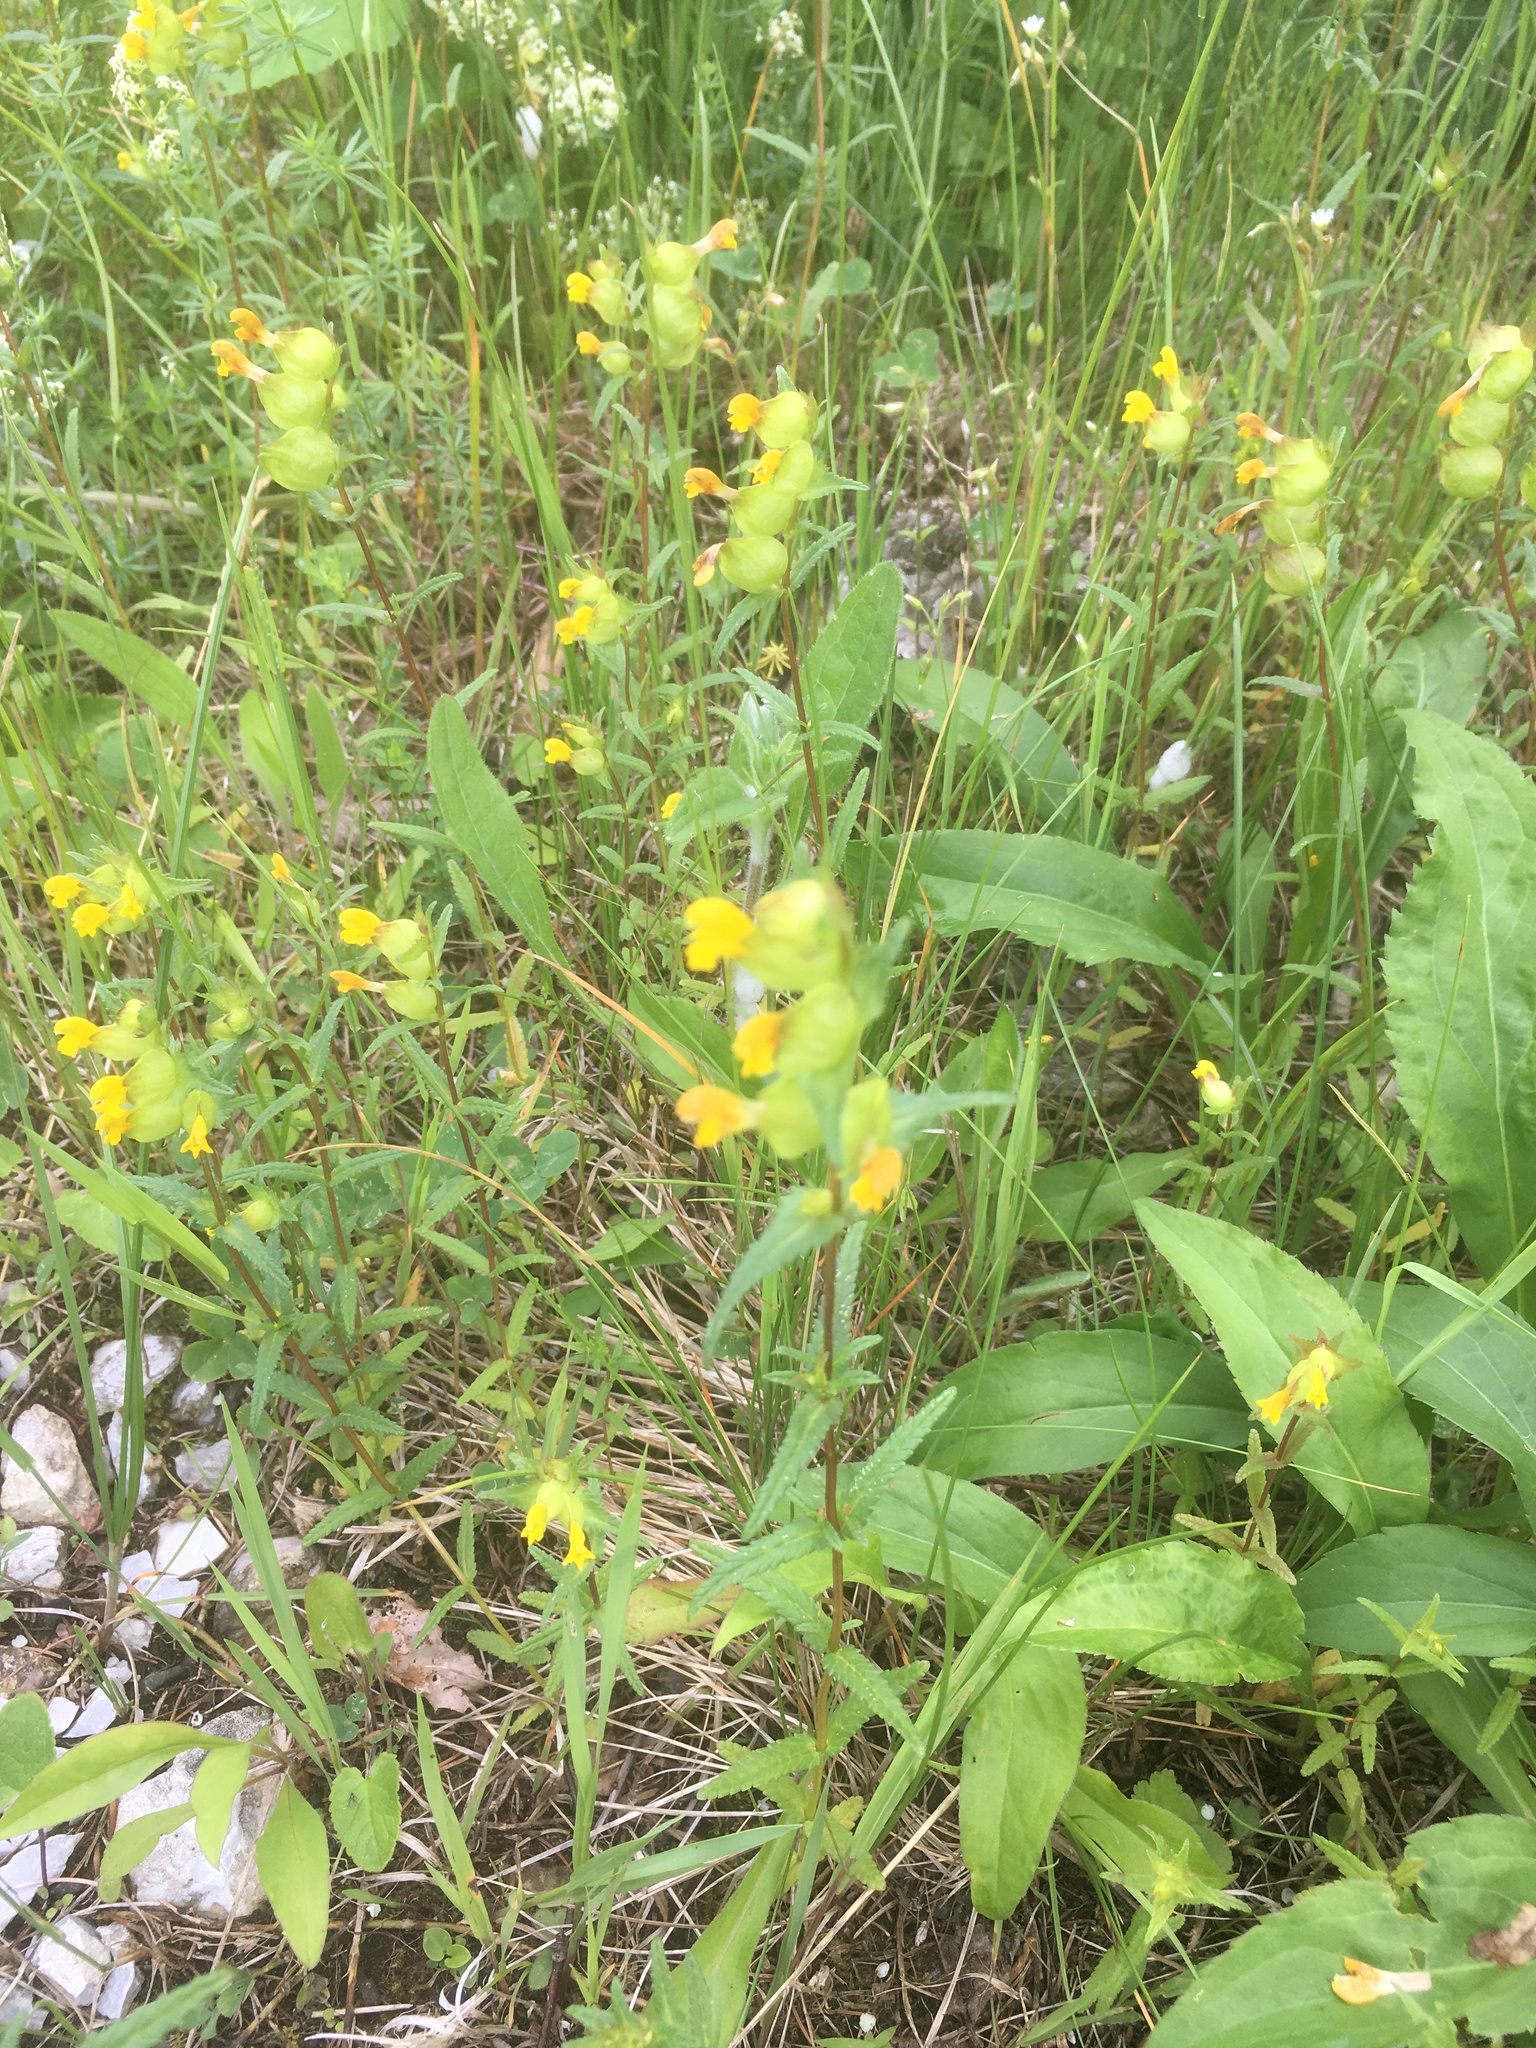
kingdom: Plantae
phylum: Tracheophyta
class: Magnoliopsida
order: Lamiales
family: Orobanchaceae
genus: Rhinanthus
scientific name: Rhinanthus minor
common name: Yellow-rattle
